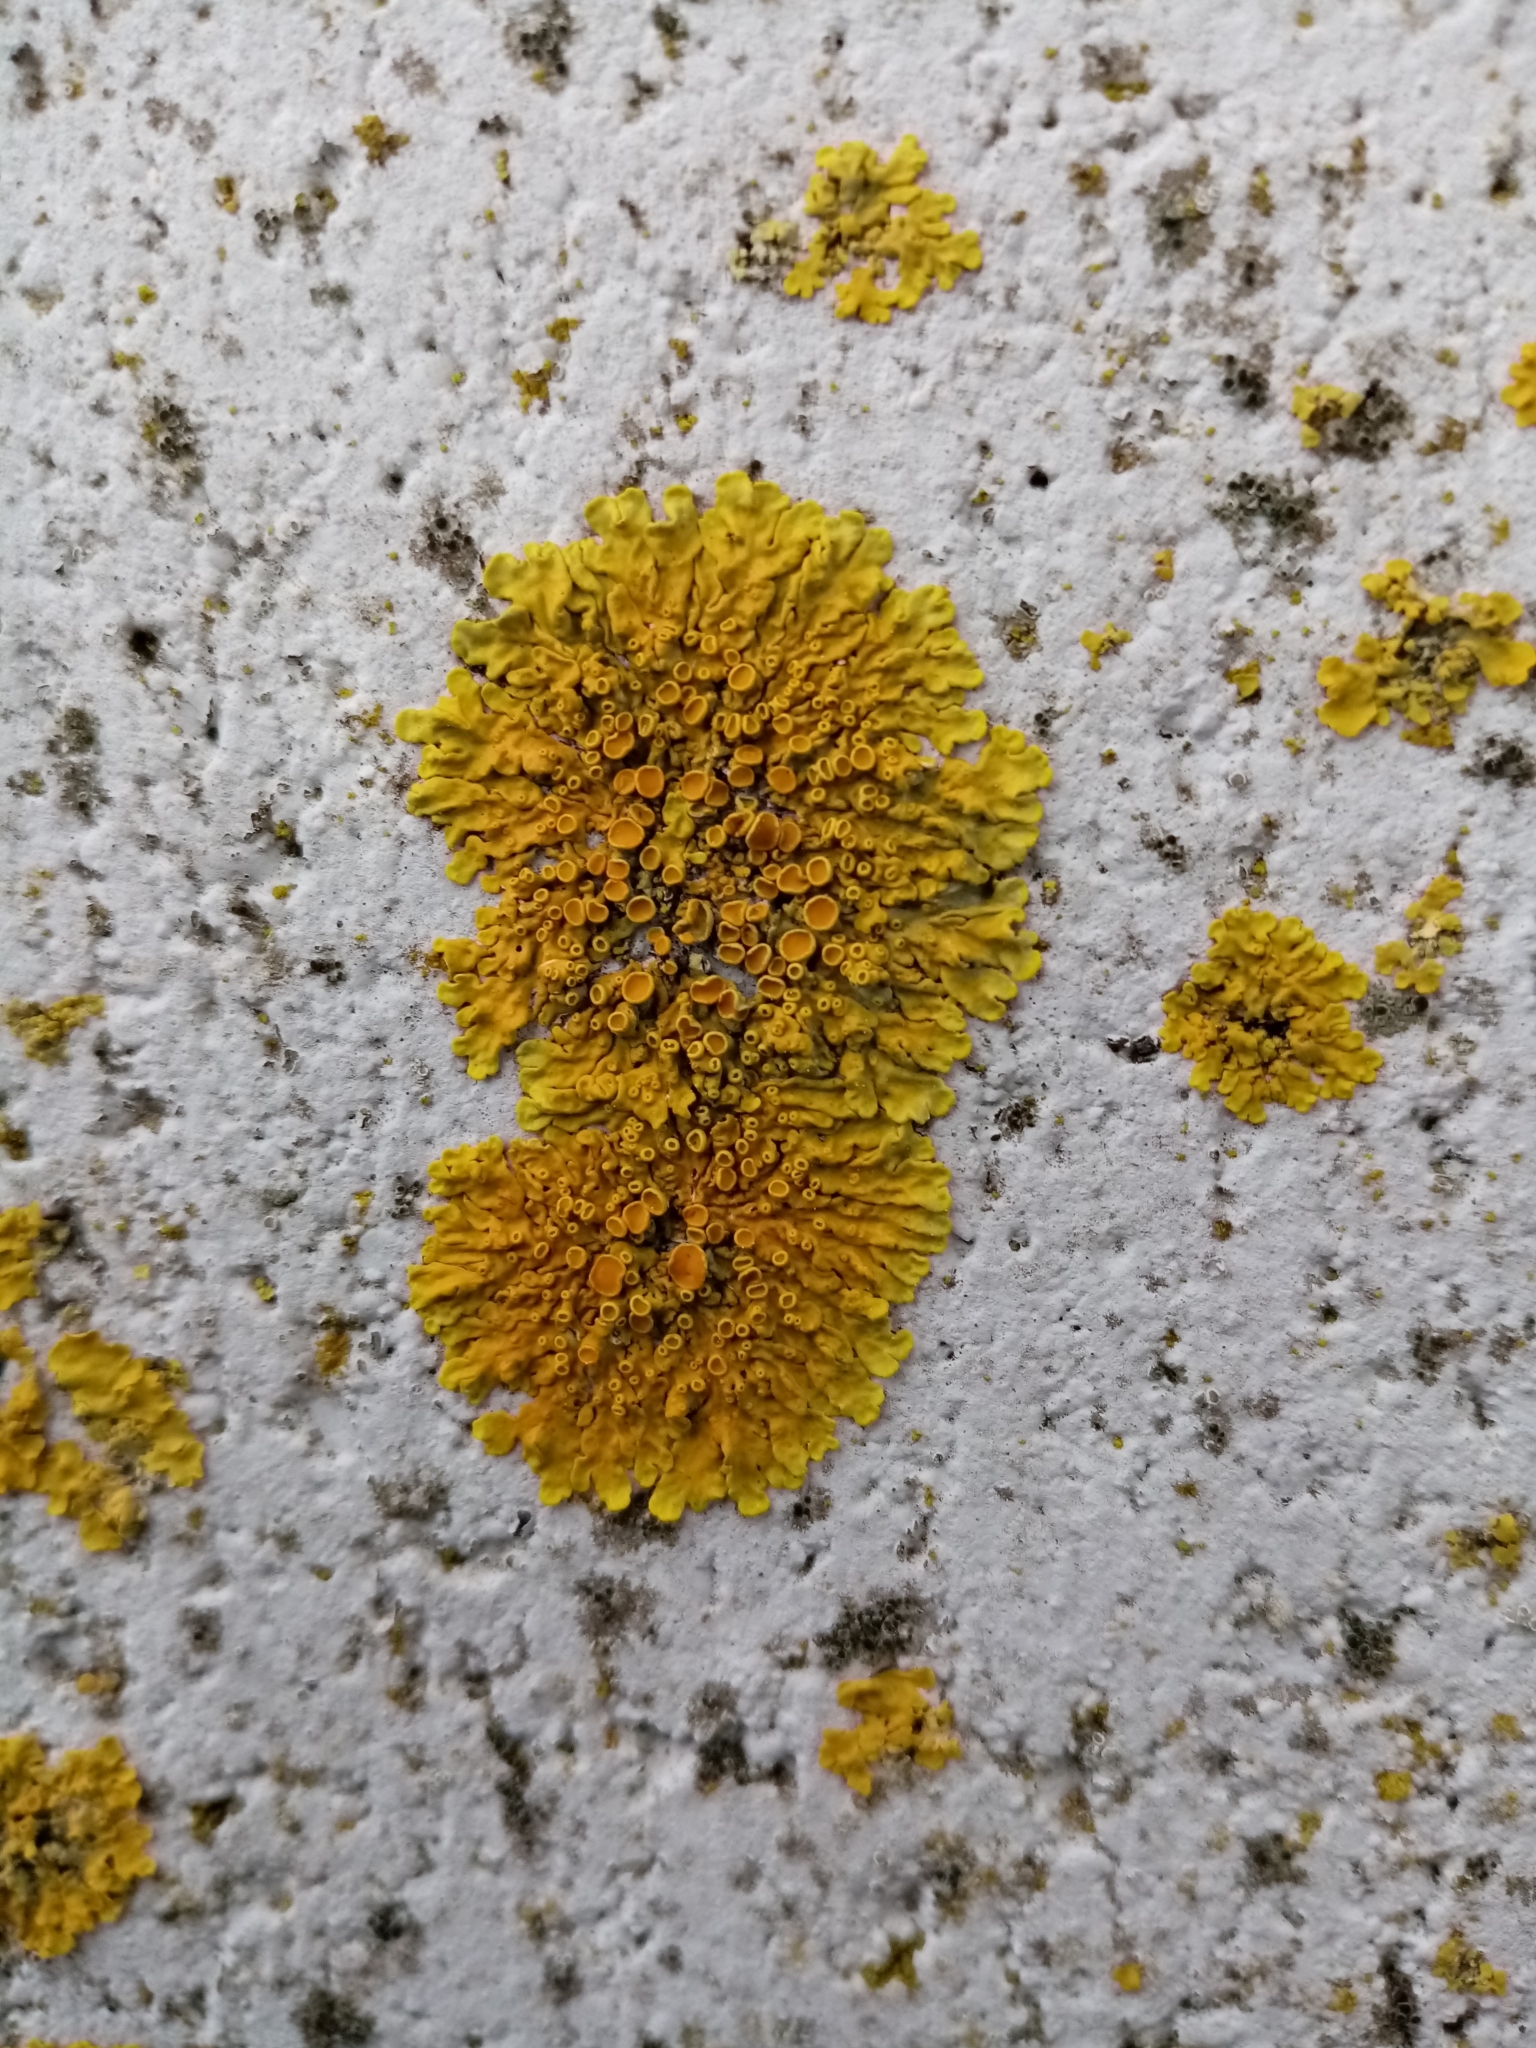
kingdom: Fungi
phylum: Ascomycota
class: Lecanoromycetes
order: Teloschistales
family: Teloschistaceae
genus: Xanthoria
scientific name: Xanthoria parietina
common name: Common orange lichen
